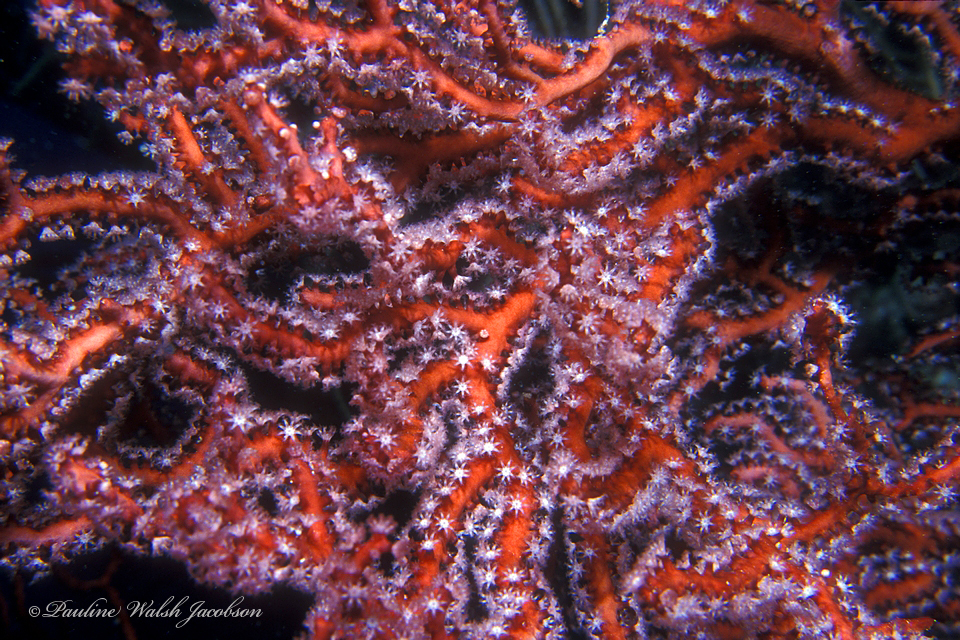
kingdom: Animalia
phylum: Cnidaria
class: Anthozoa
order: Malacalcyonacea
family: Melithaeidae
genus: Iciligorgia
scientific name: Iciligorgia schrammi
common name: Black sea fan
